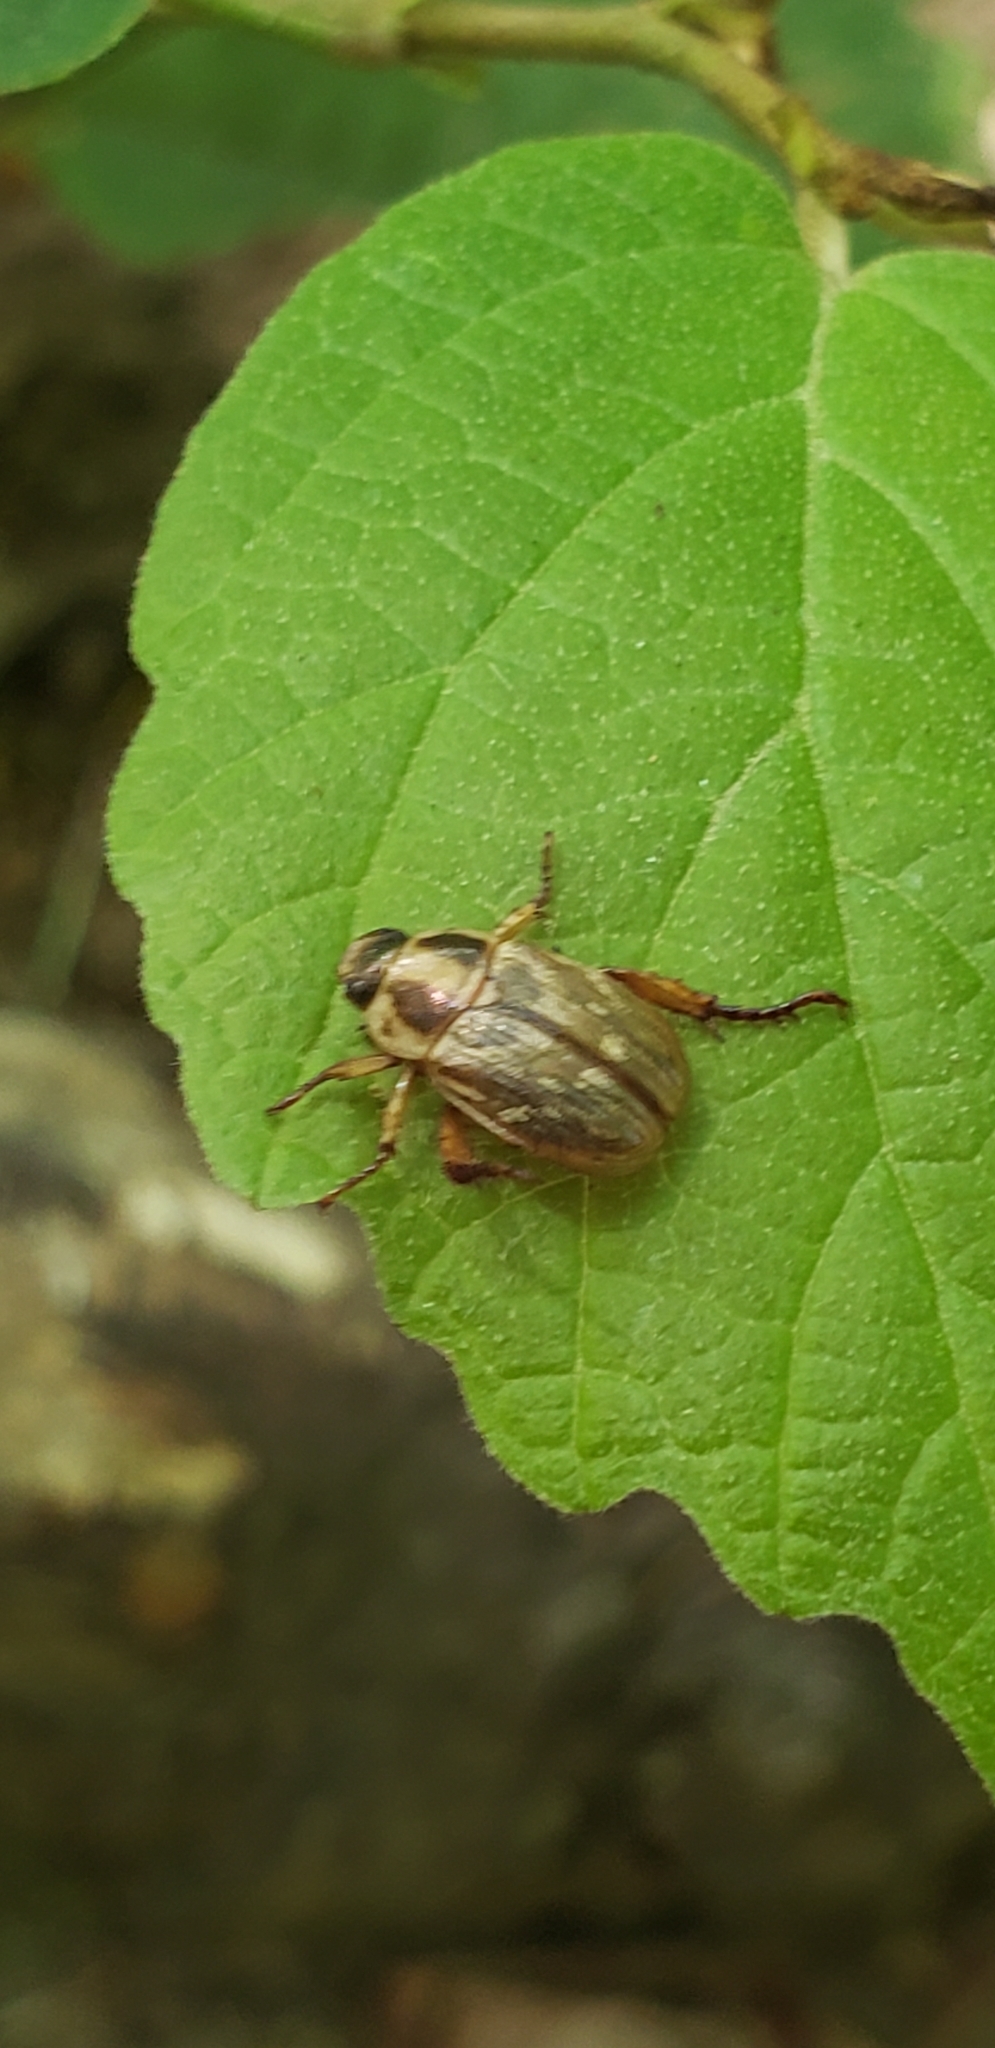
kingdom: Animalia
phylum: Arthropoda
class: Insecta
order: Coleoptera
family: Scarabaeidae
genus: Exomala
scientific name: Exomala orientalis
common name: Oriental beetle
